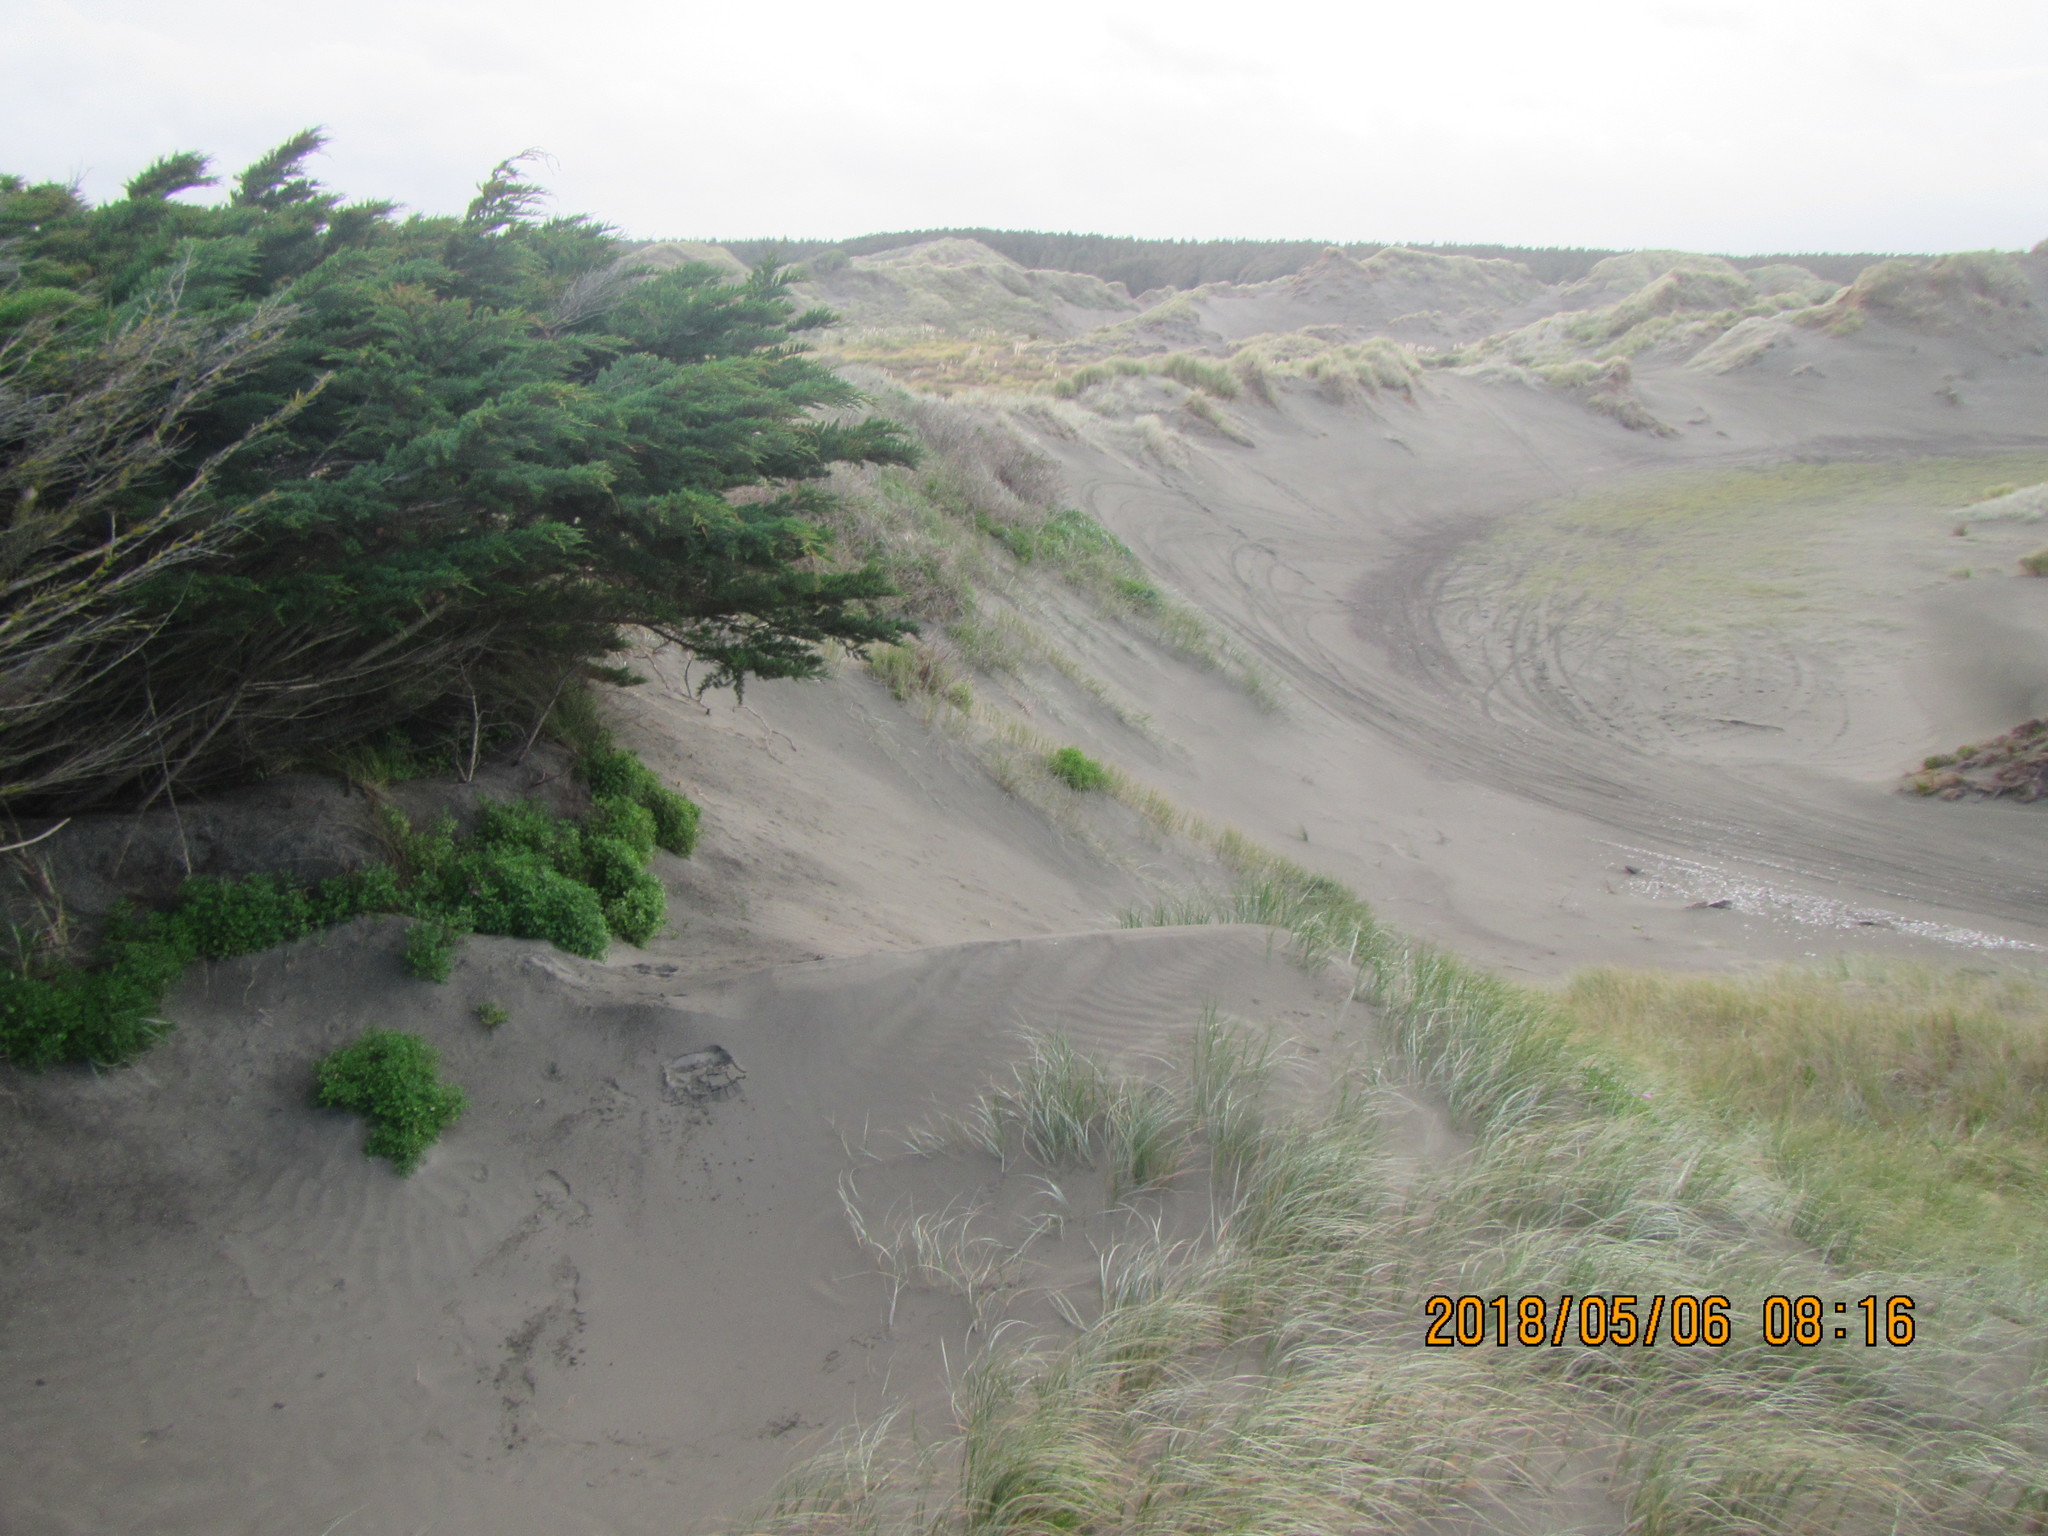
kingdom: Plantae
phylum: Tracheophyta
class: Pinopsida
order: Pinales
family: Cupressaceae
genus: Cupressus
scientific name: Cupressus macrocarpa
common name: Monterey cypress
